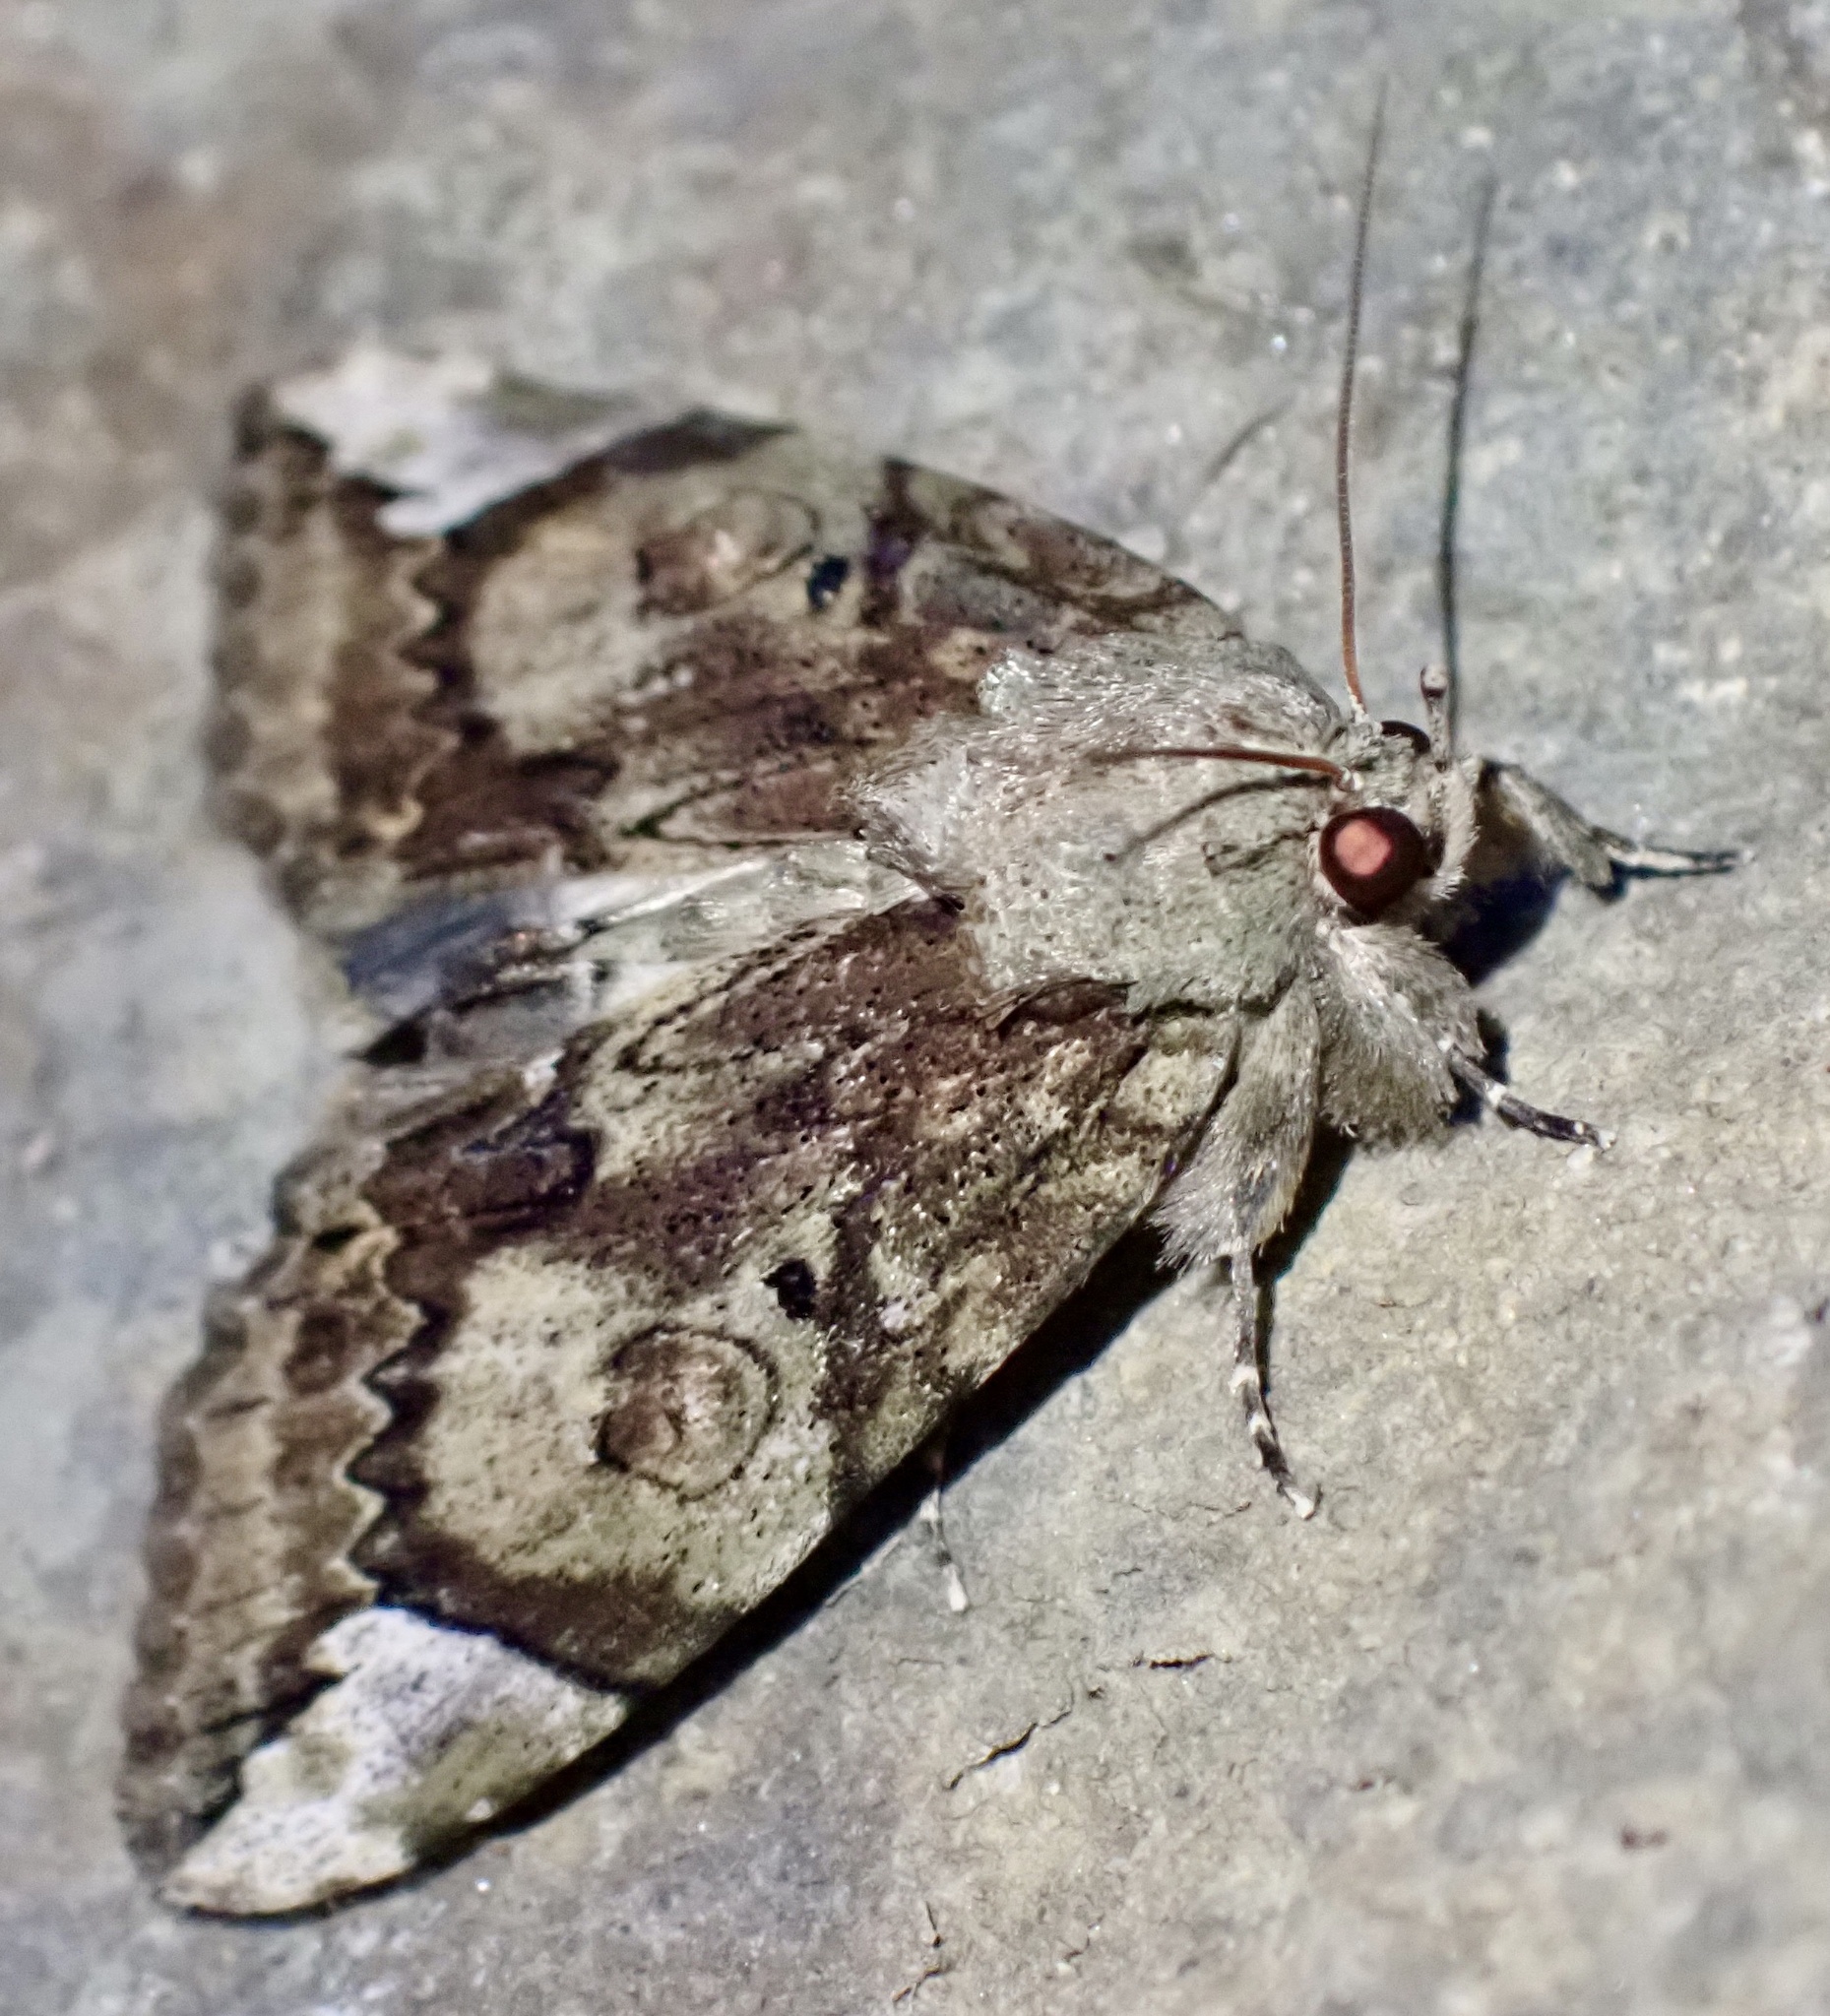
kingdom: Animalia
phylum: Arthropoda
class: Insecta
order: Lepidoptera
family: Nolidae
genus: Plotheia
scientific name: Plotheia
